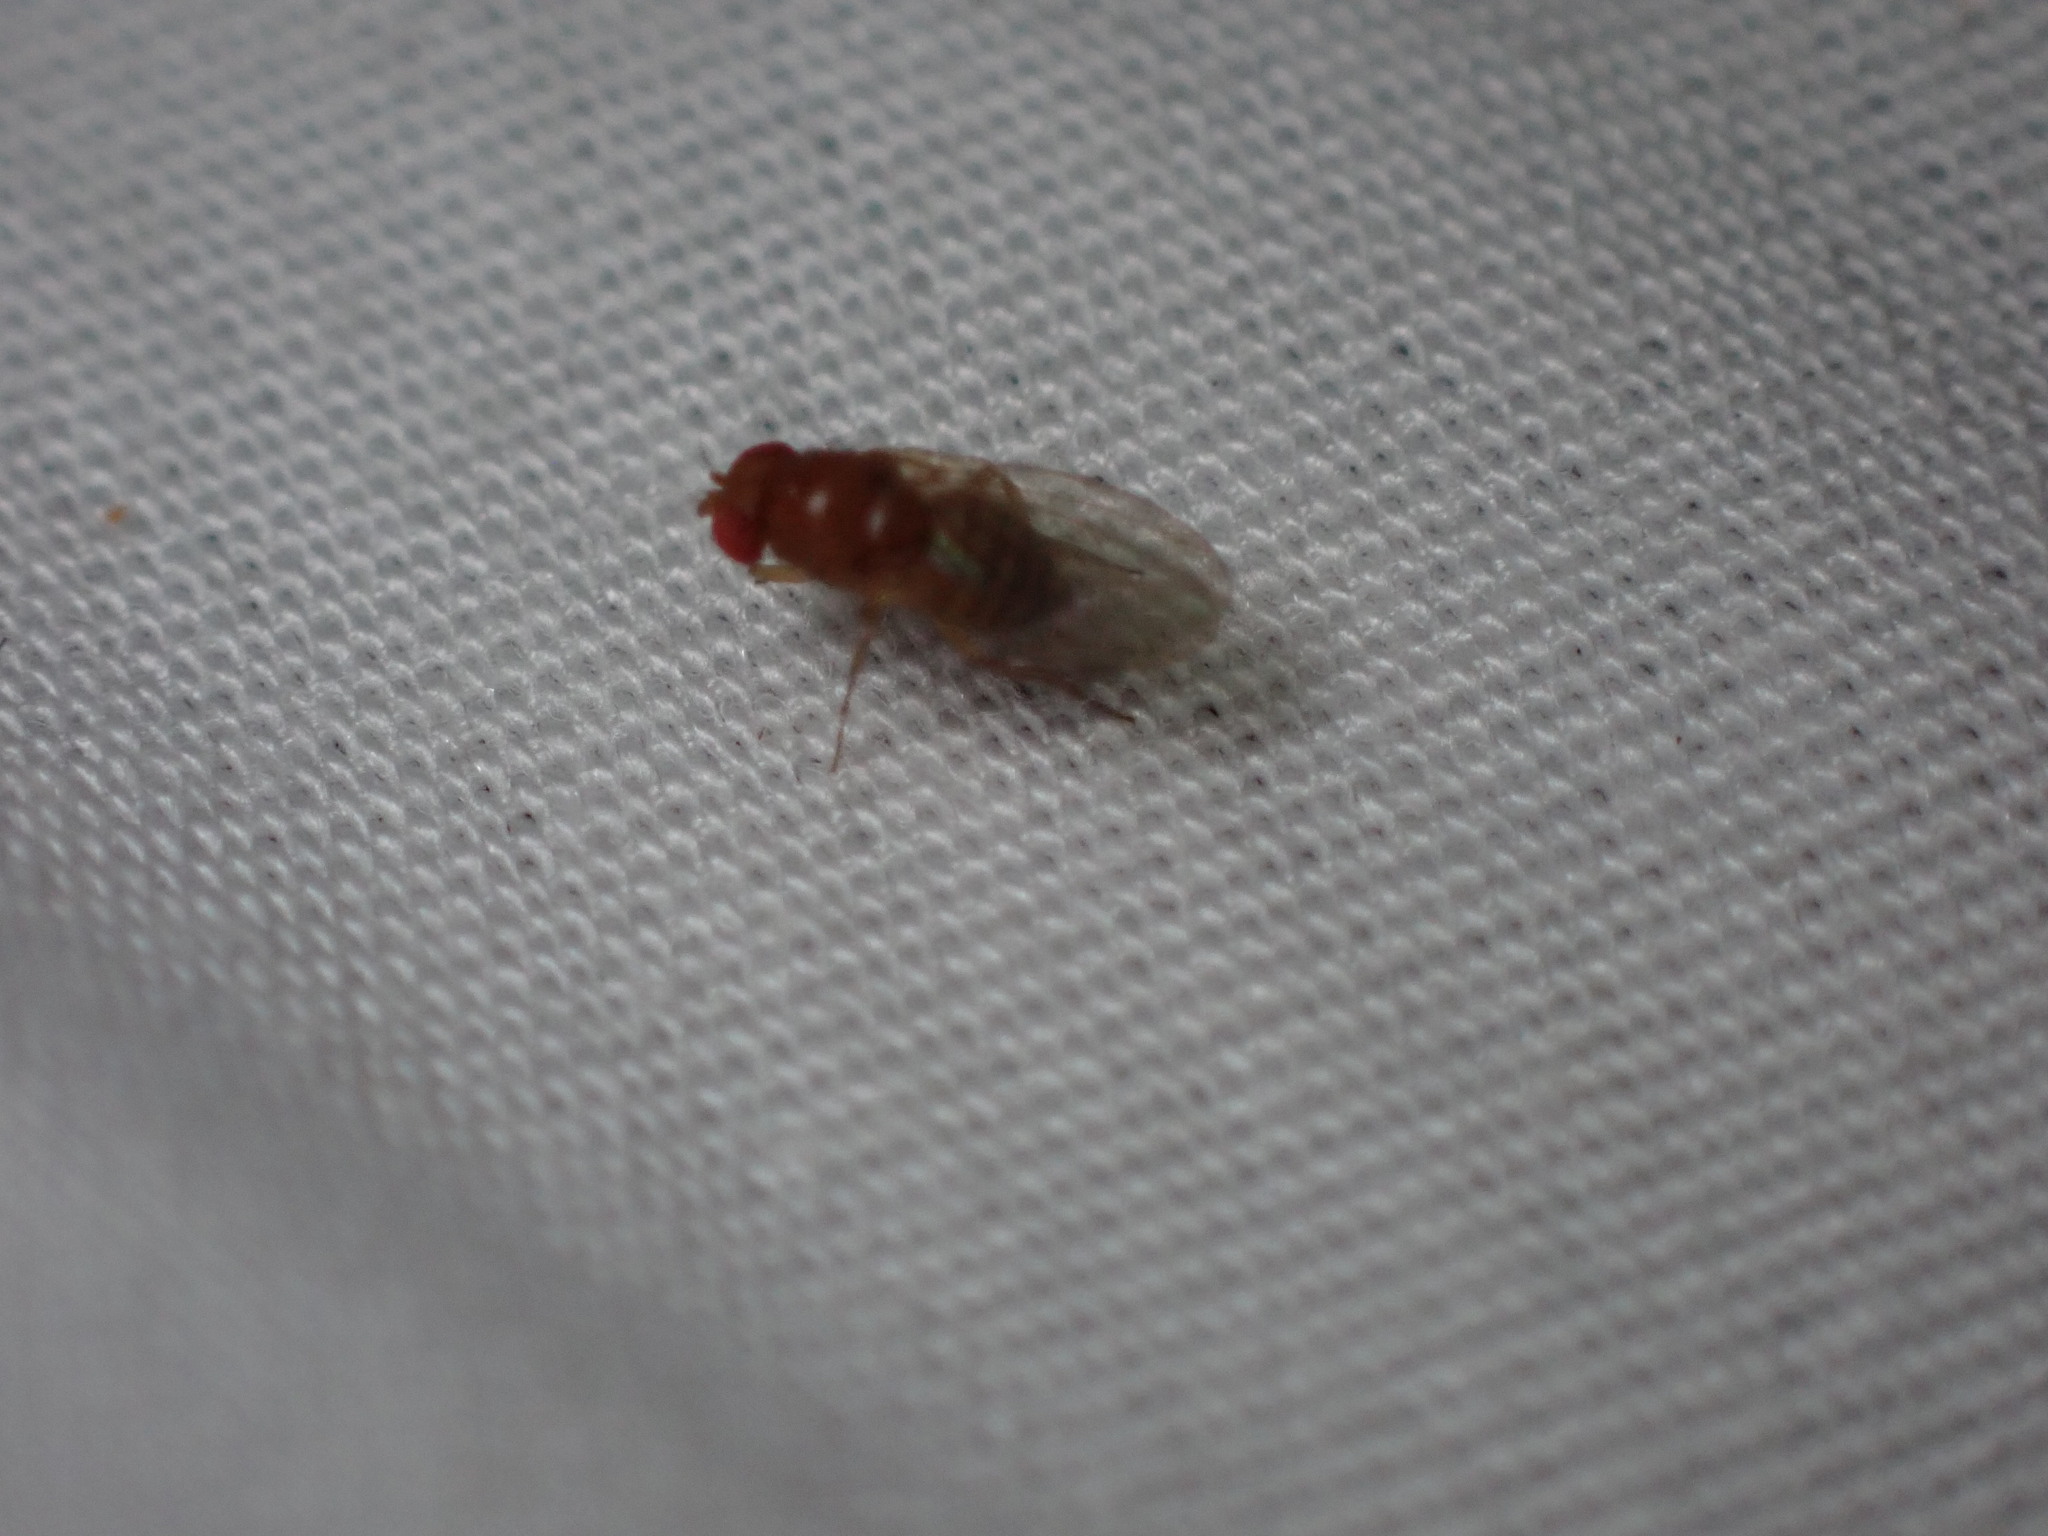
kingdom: Animalia
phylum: Arthropoda
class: Insecta
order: Diptera
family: Drosophilidae
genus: Drosophila
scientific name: Drosophila suzukii
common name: Spotted-wing drosophila
